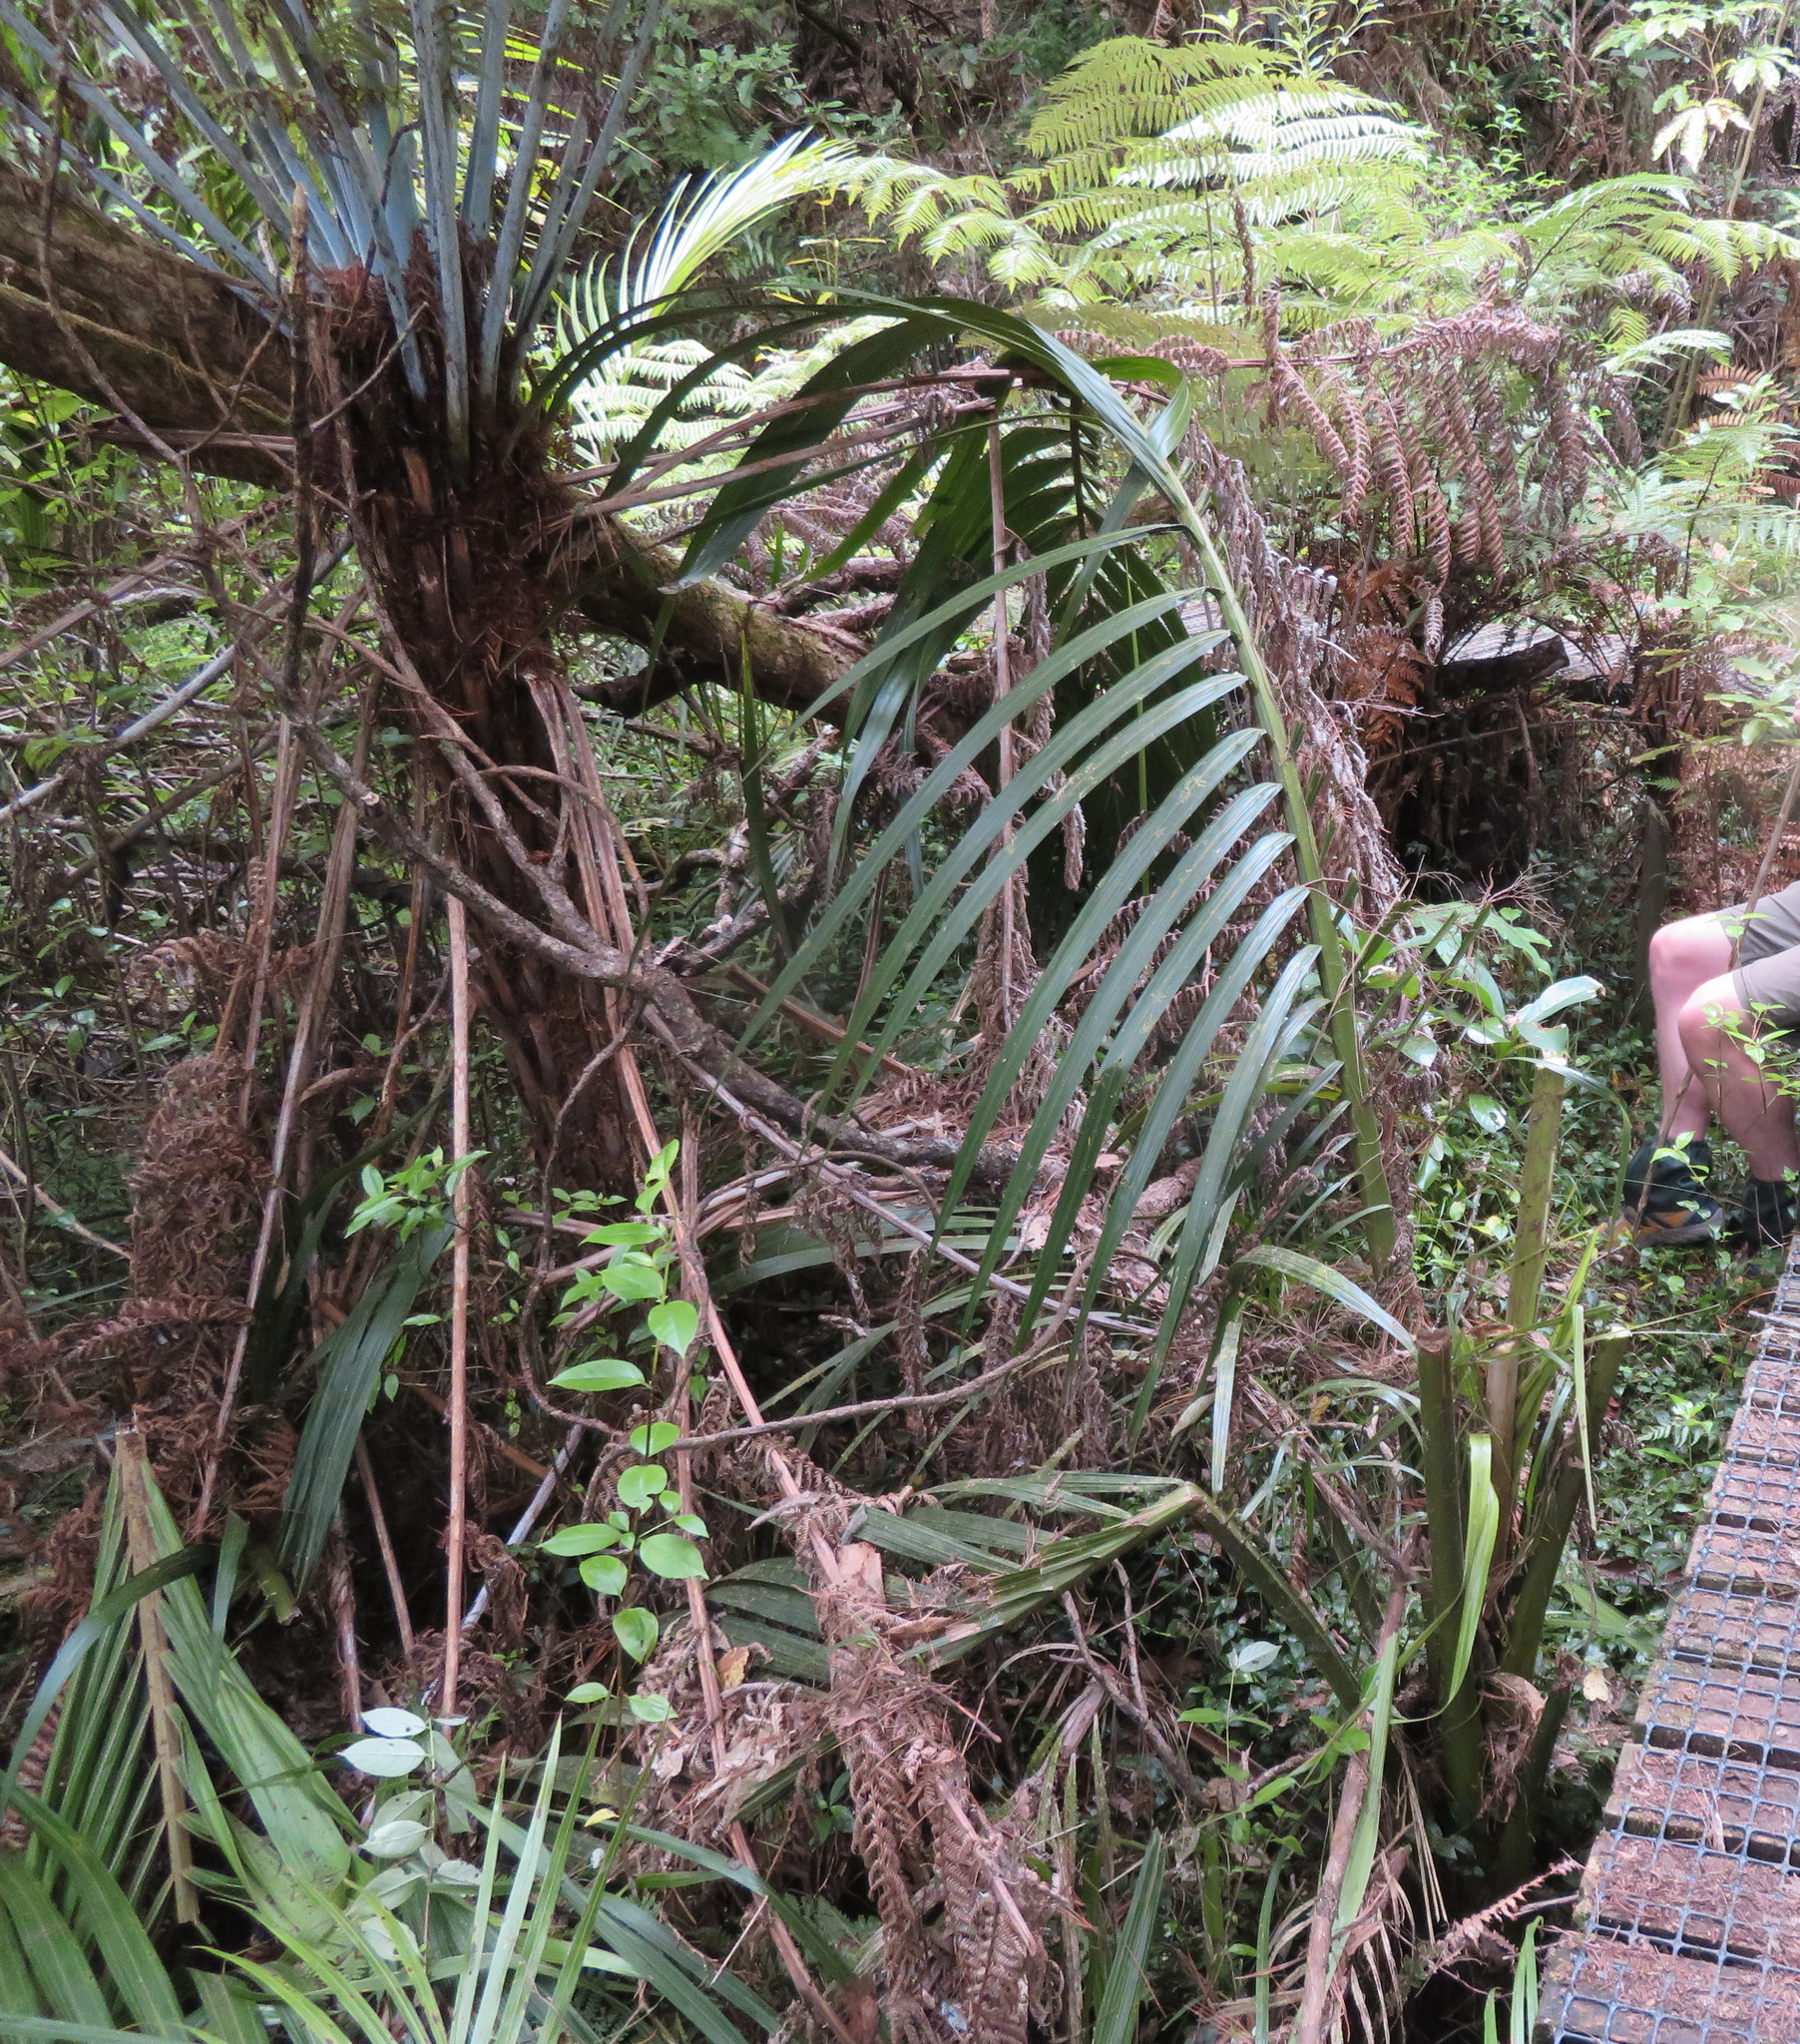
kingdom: Plantae
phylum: Tracheophyta
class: Liliopsida
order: Arecales
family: Arecaceae
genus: Rhopalostylis
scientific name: Rhopalostylis sapida
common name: Feather-duster palm
